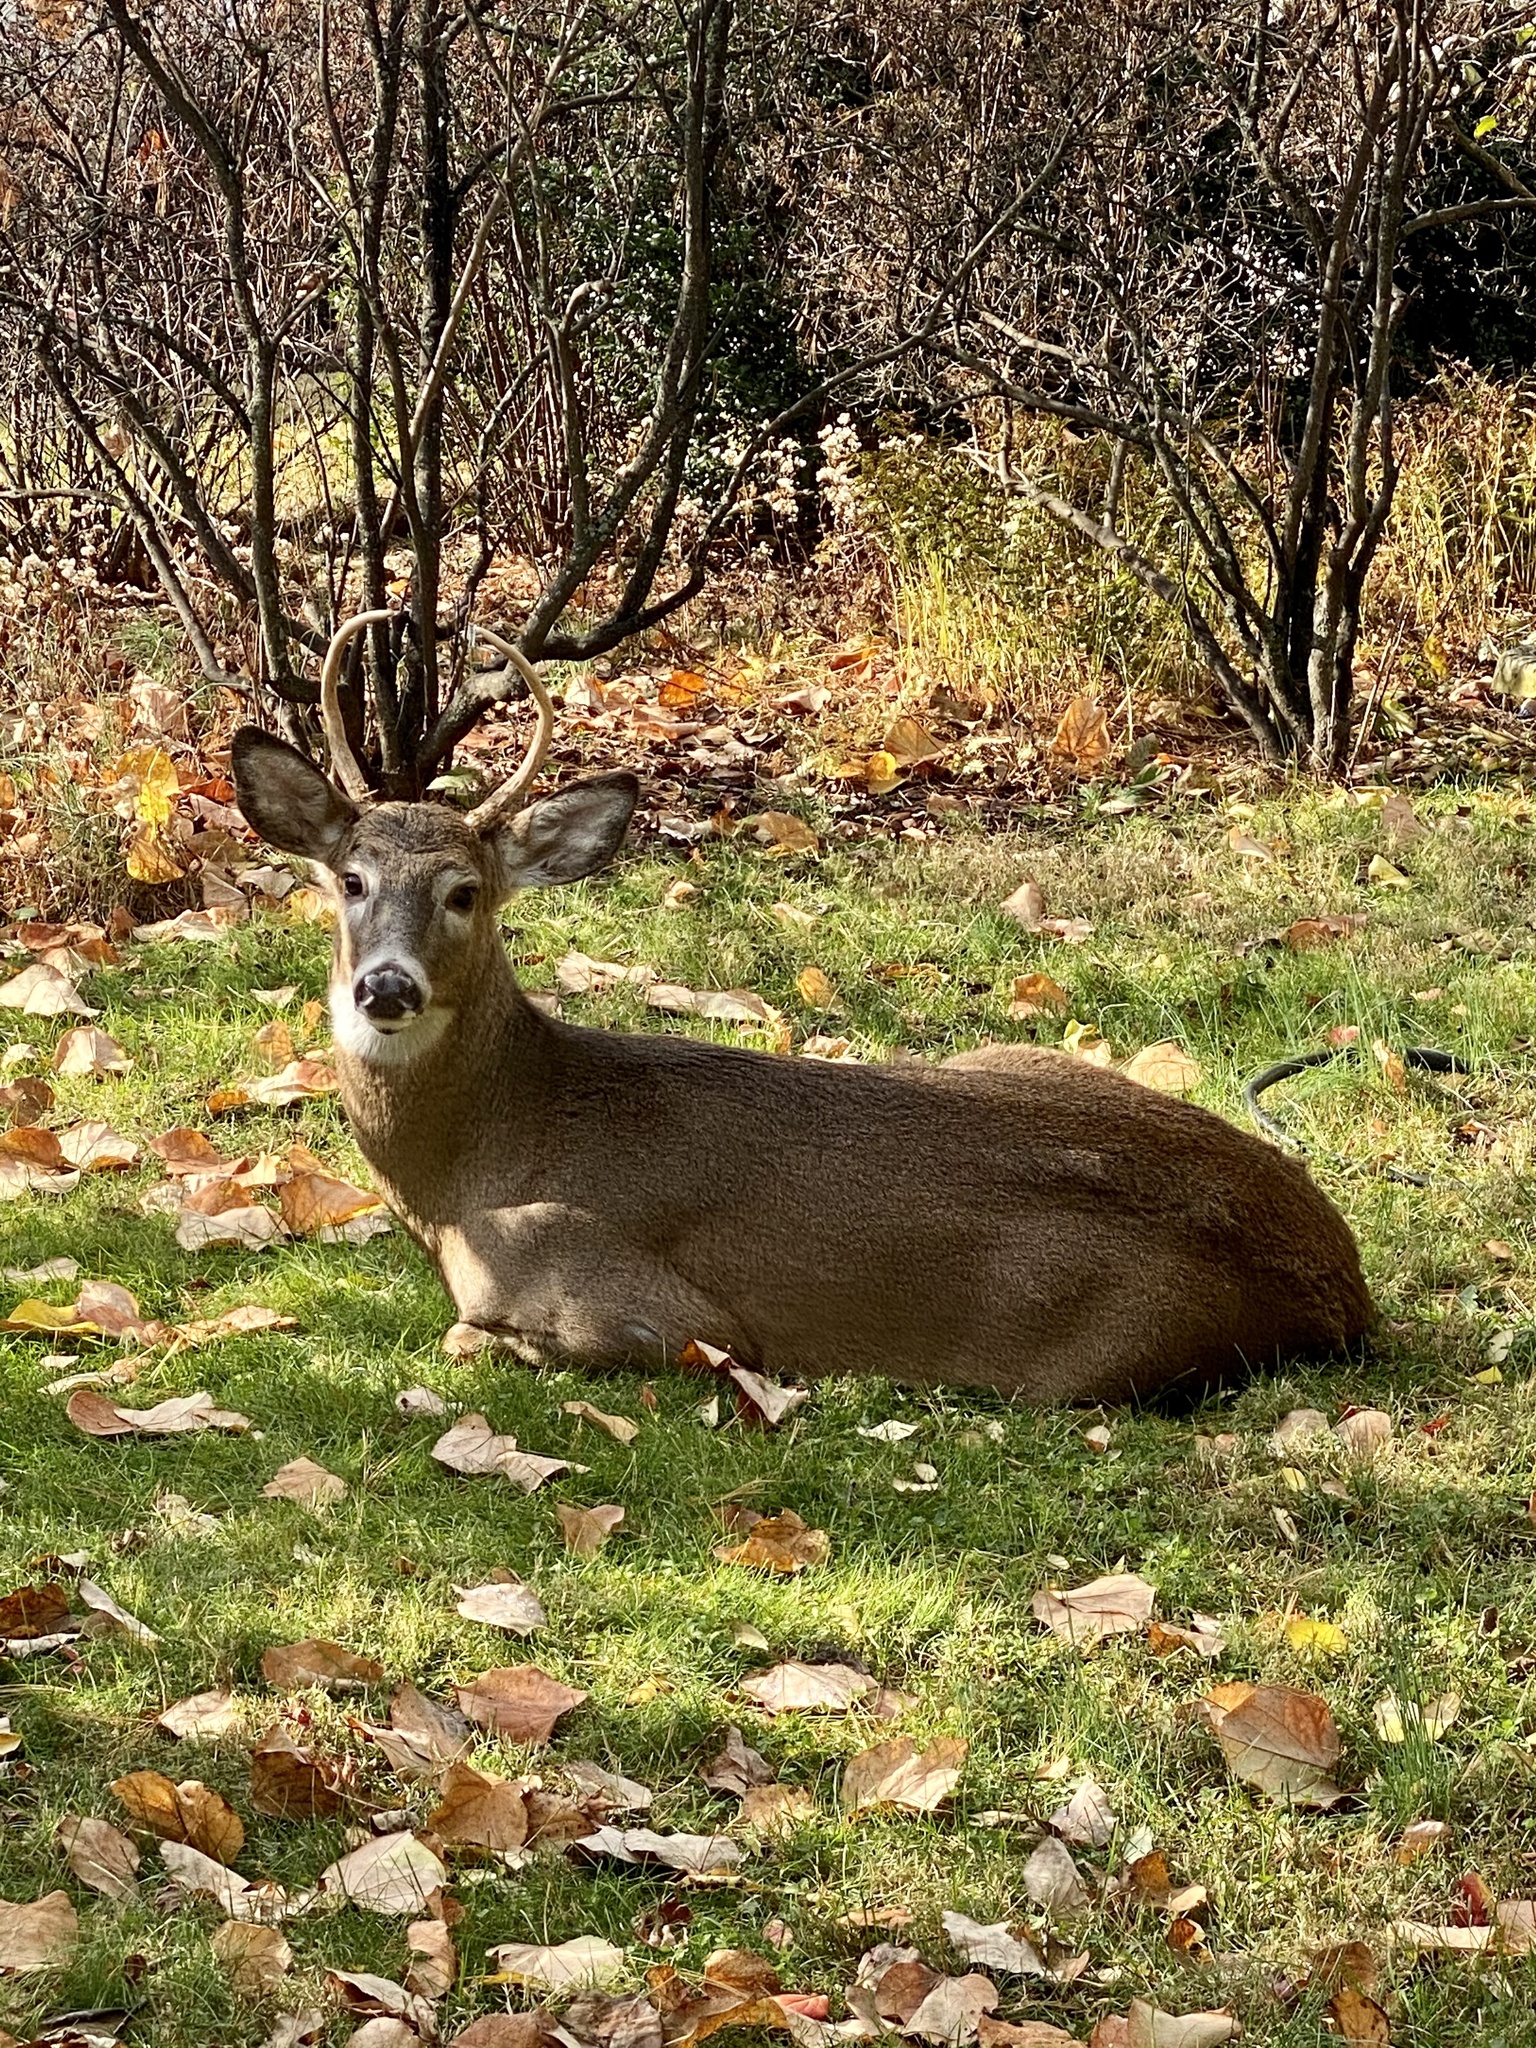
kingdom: Animalia
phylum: Chordata
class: Mammalia
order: Artiodactyla
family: Cervidae
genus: Odocoileus
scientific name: Odocoileus virginianus
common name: White-tailed deer
